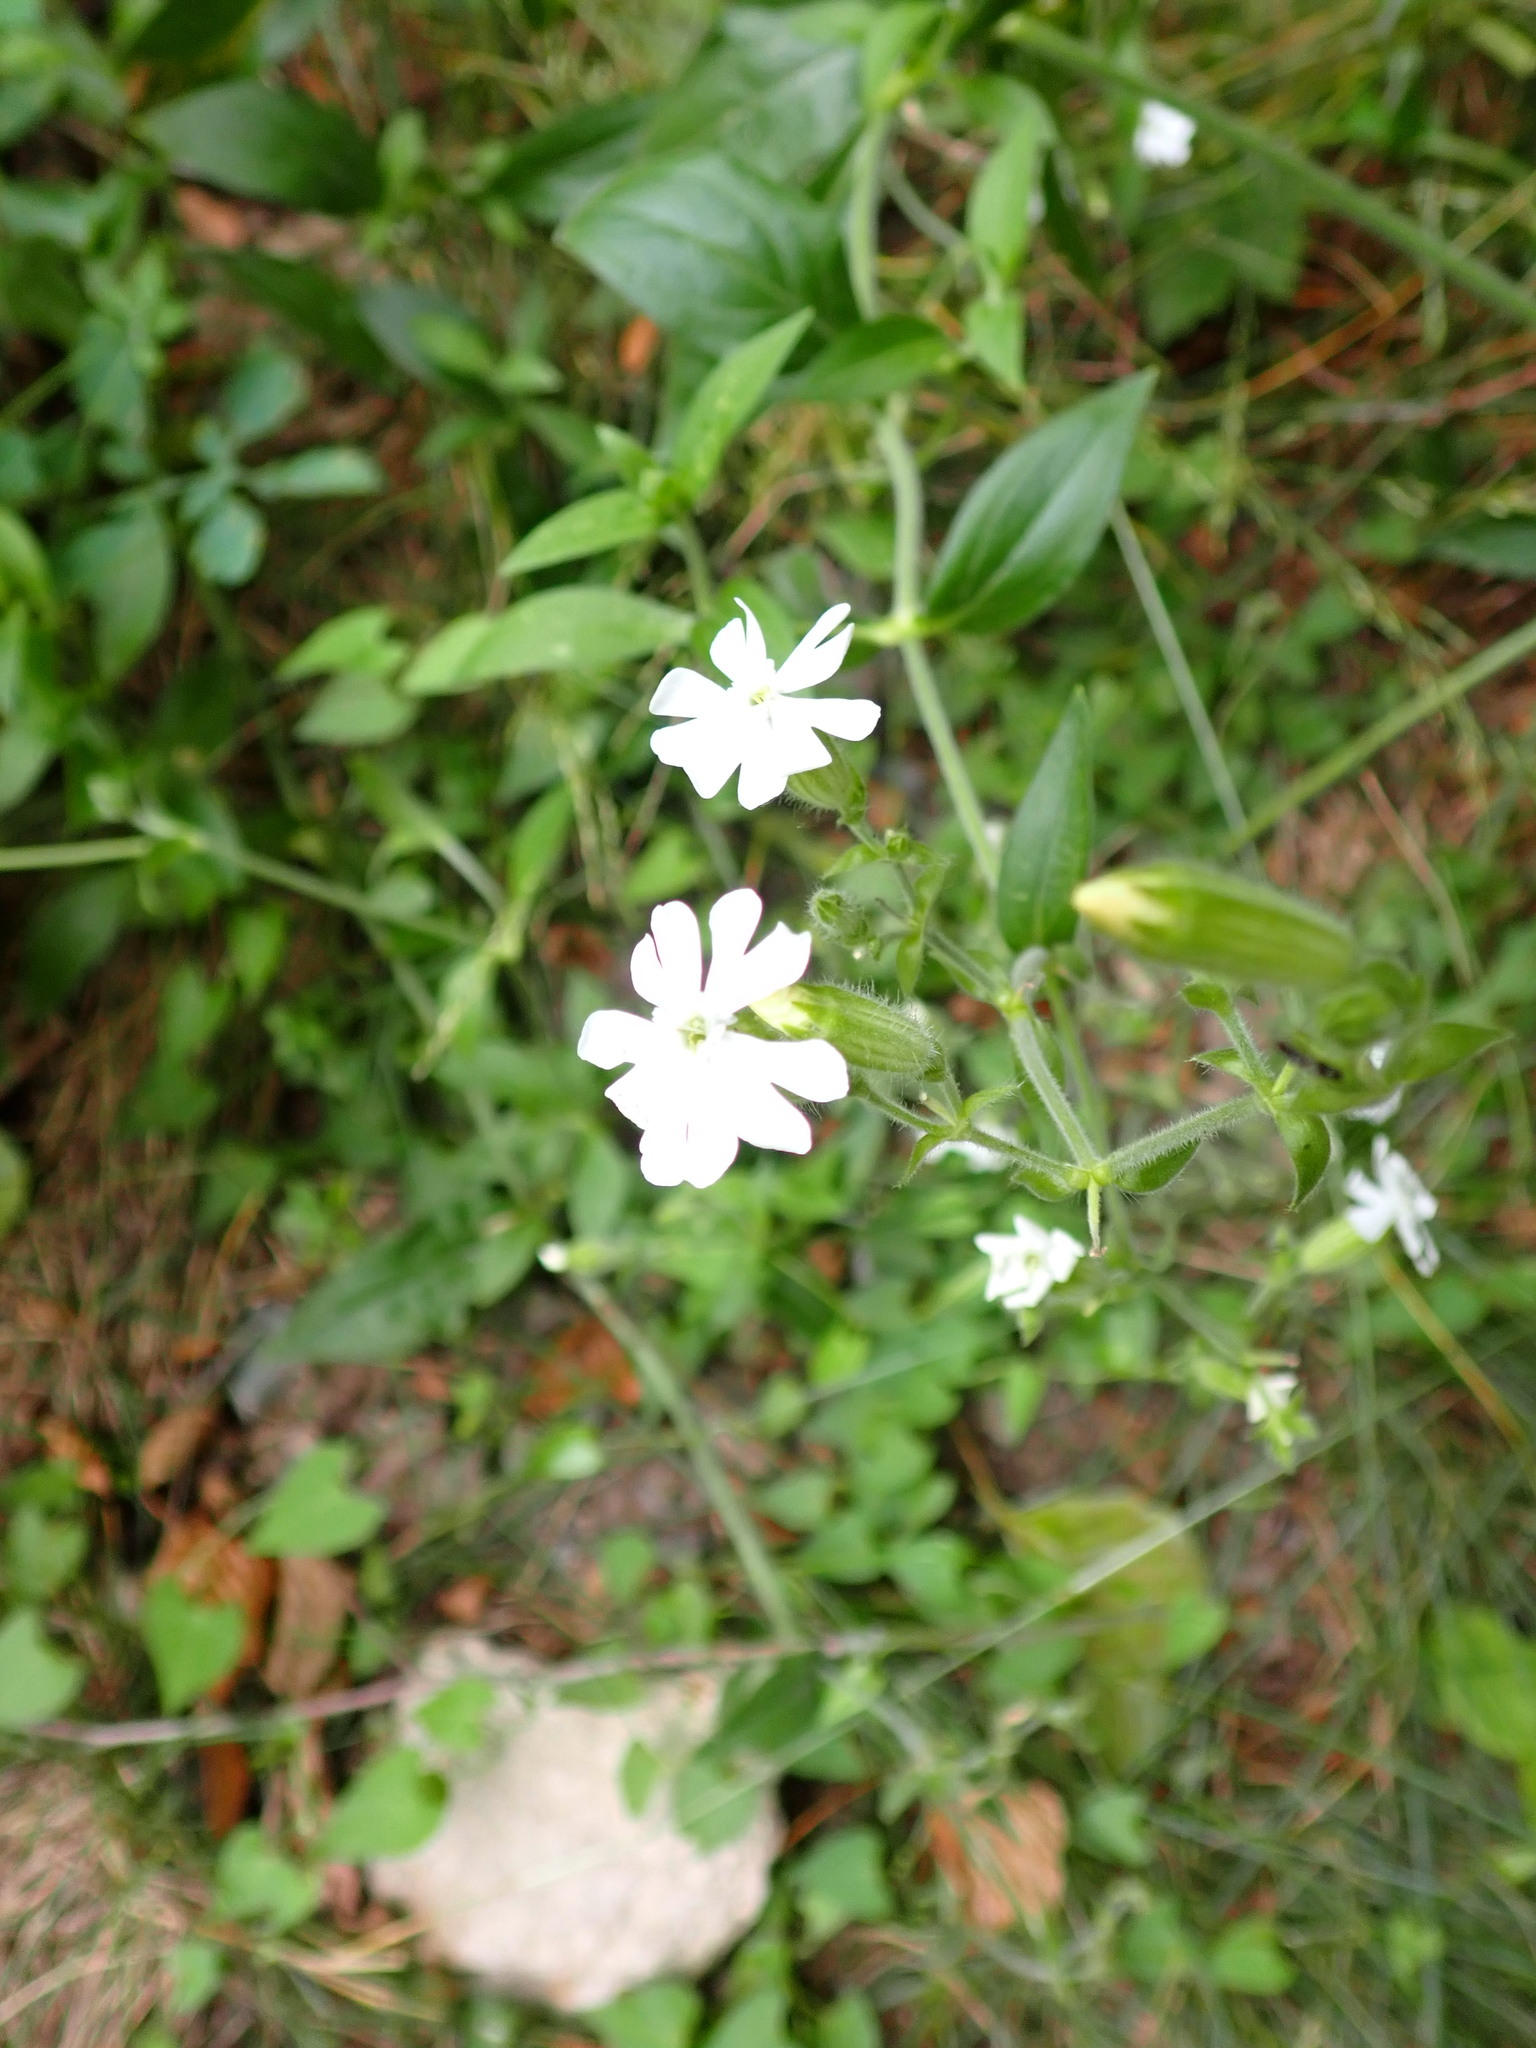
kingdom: Plantae
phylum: Tracheophyta
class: Magnoliopsida
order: Caryophyllales
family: Caryophyllaceae
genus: Silene
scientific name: Silene latifolia
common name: White campion
